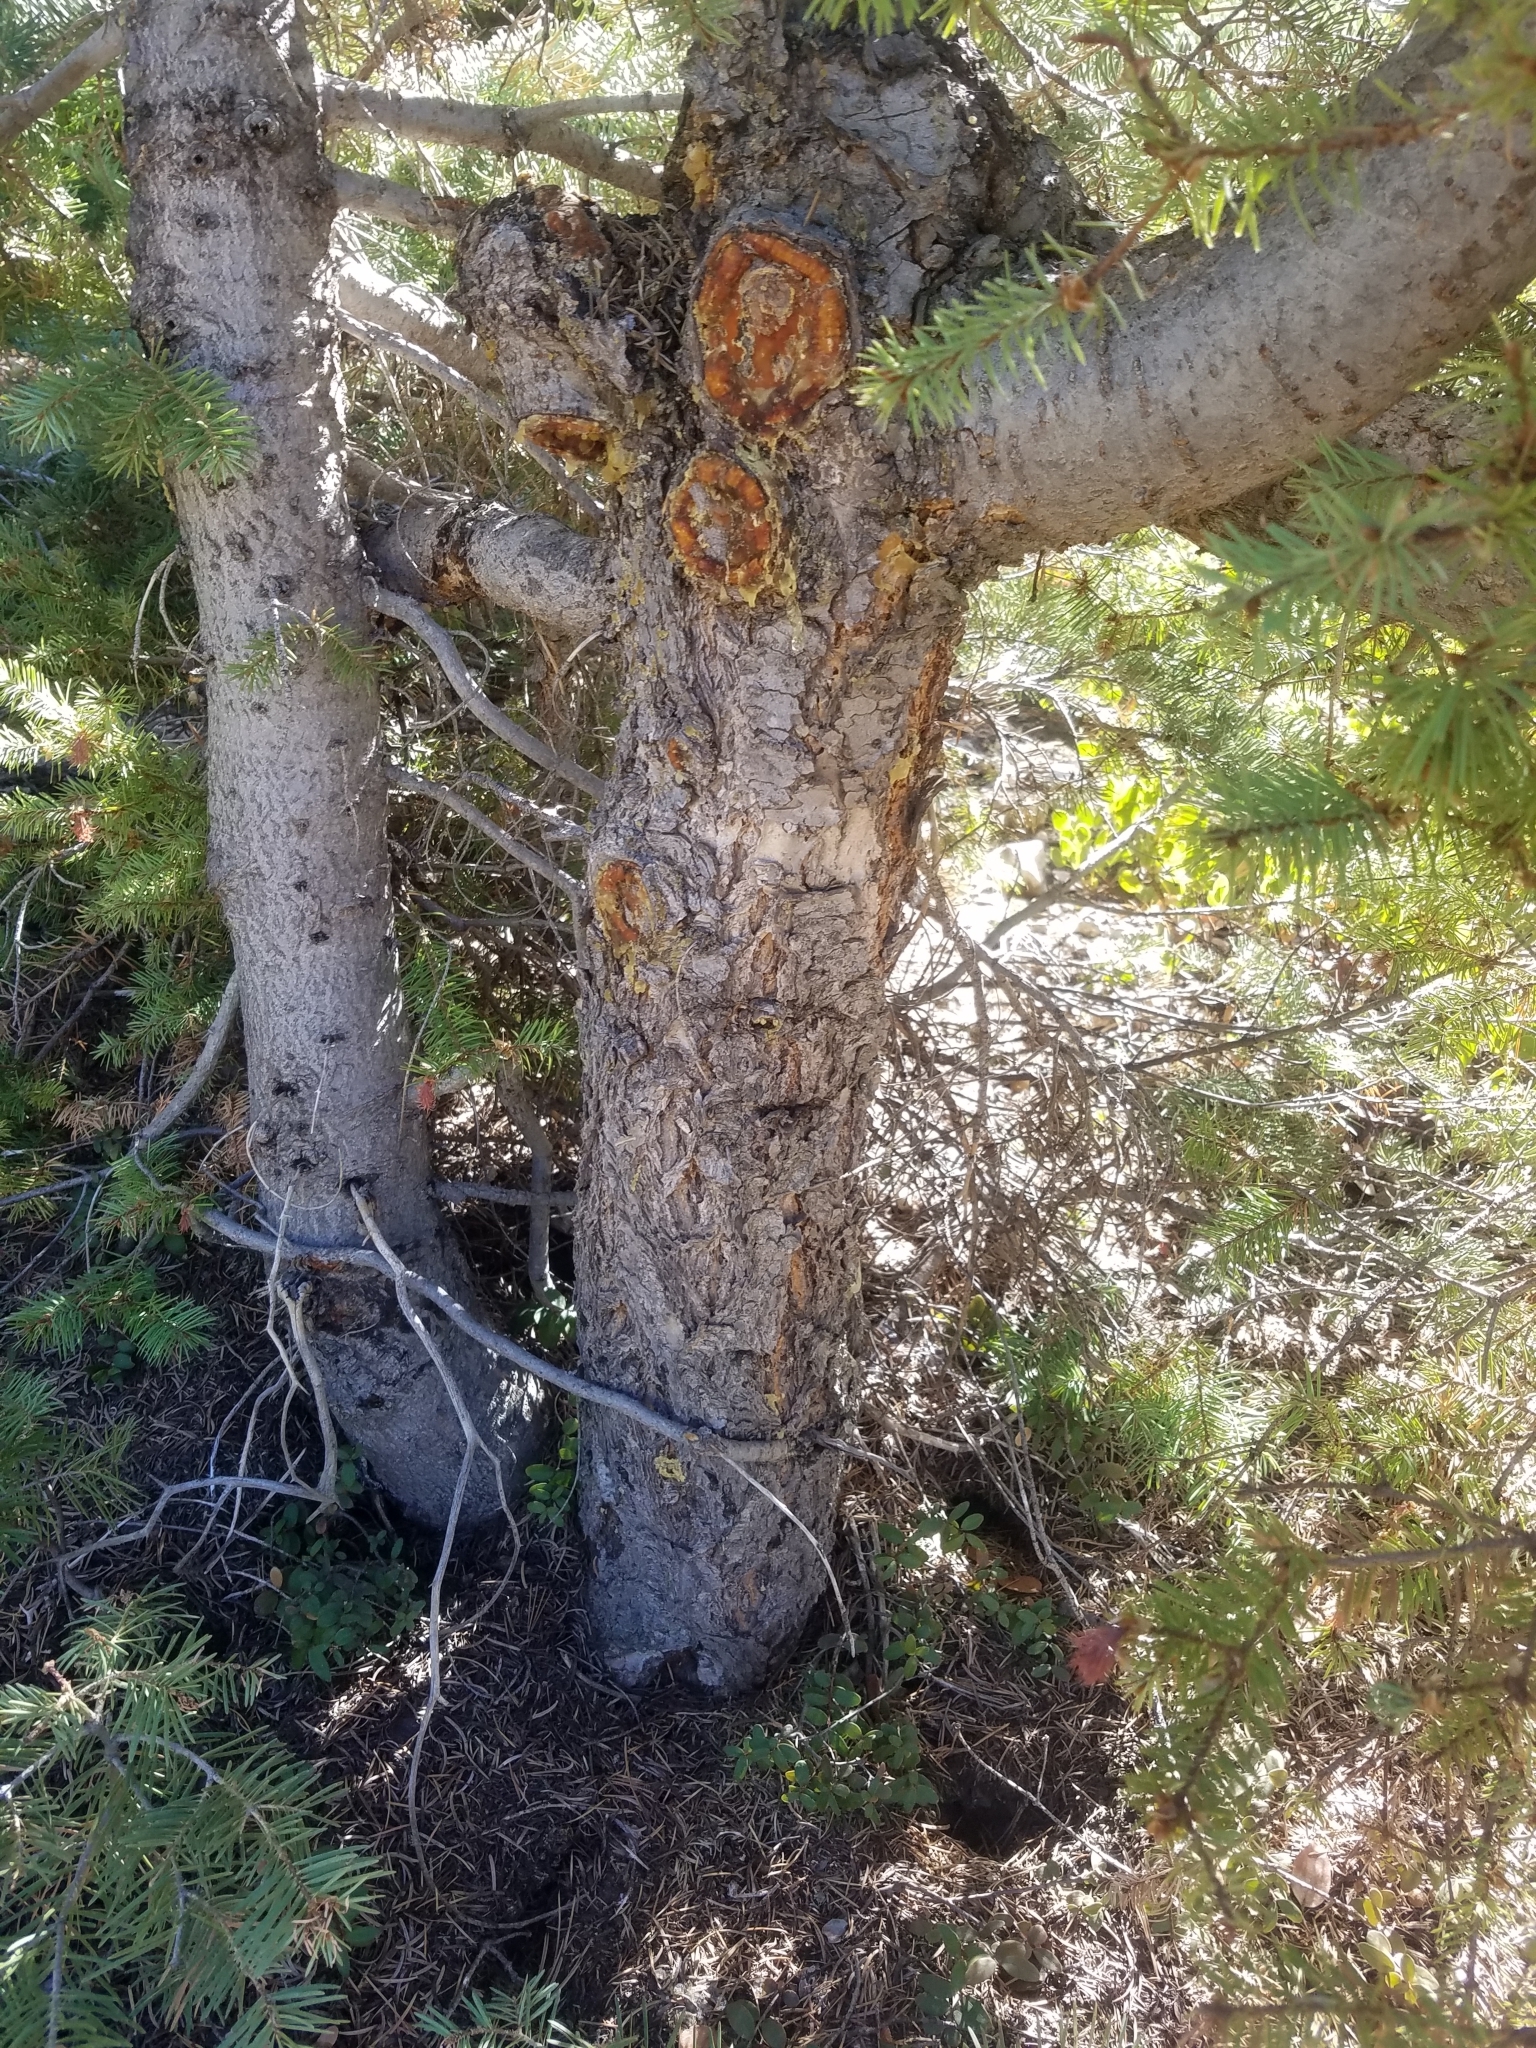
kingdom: Plantae
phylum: Tracheophyta
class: Pinopsida
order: Pinales
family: Pinaceae
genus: Pseudotsuga
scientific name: Pseudotsuga menziesii
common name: Douglas fir
